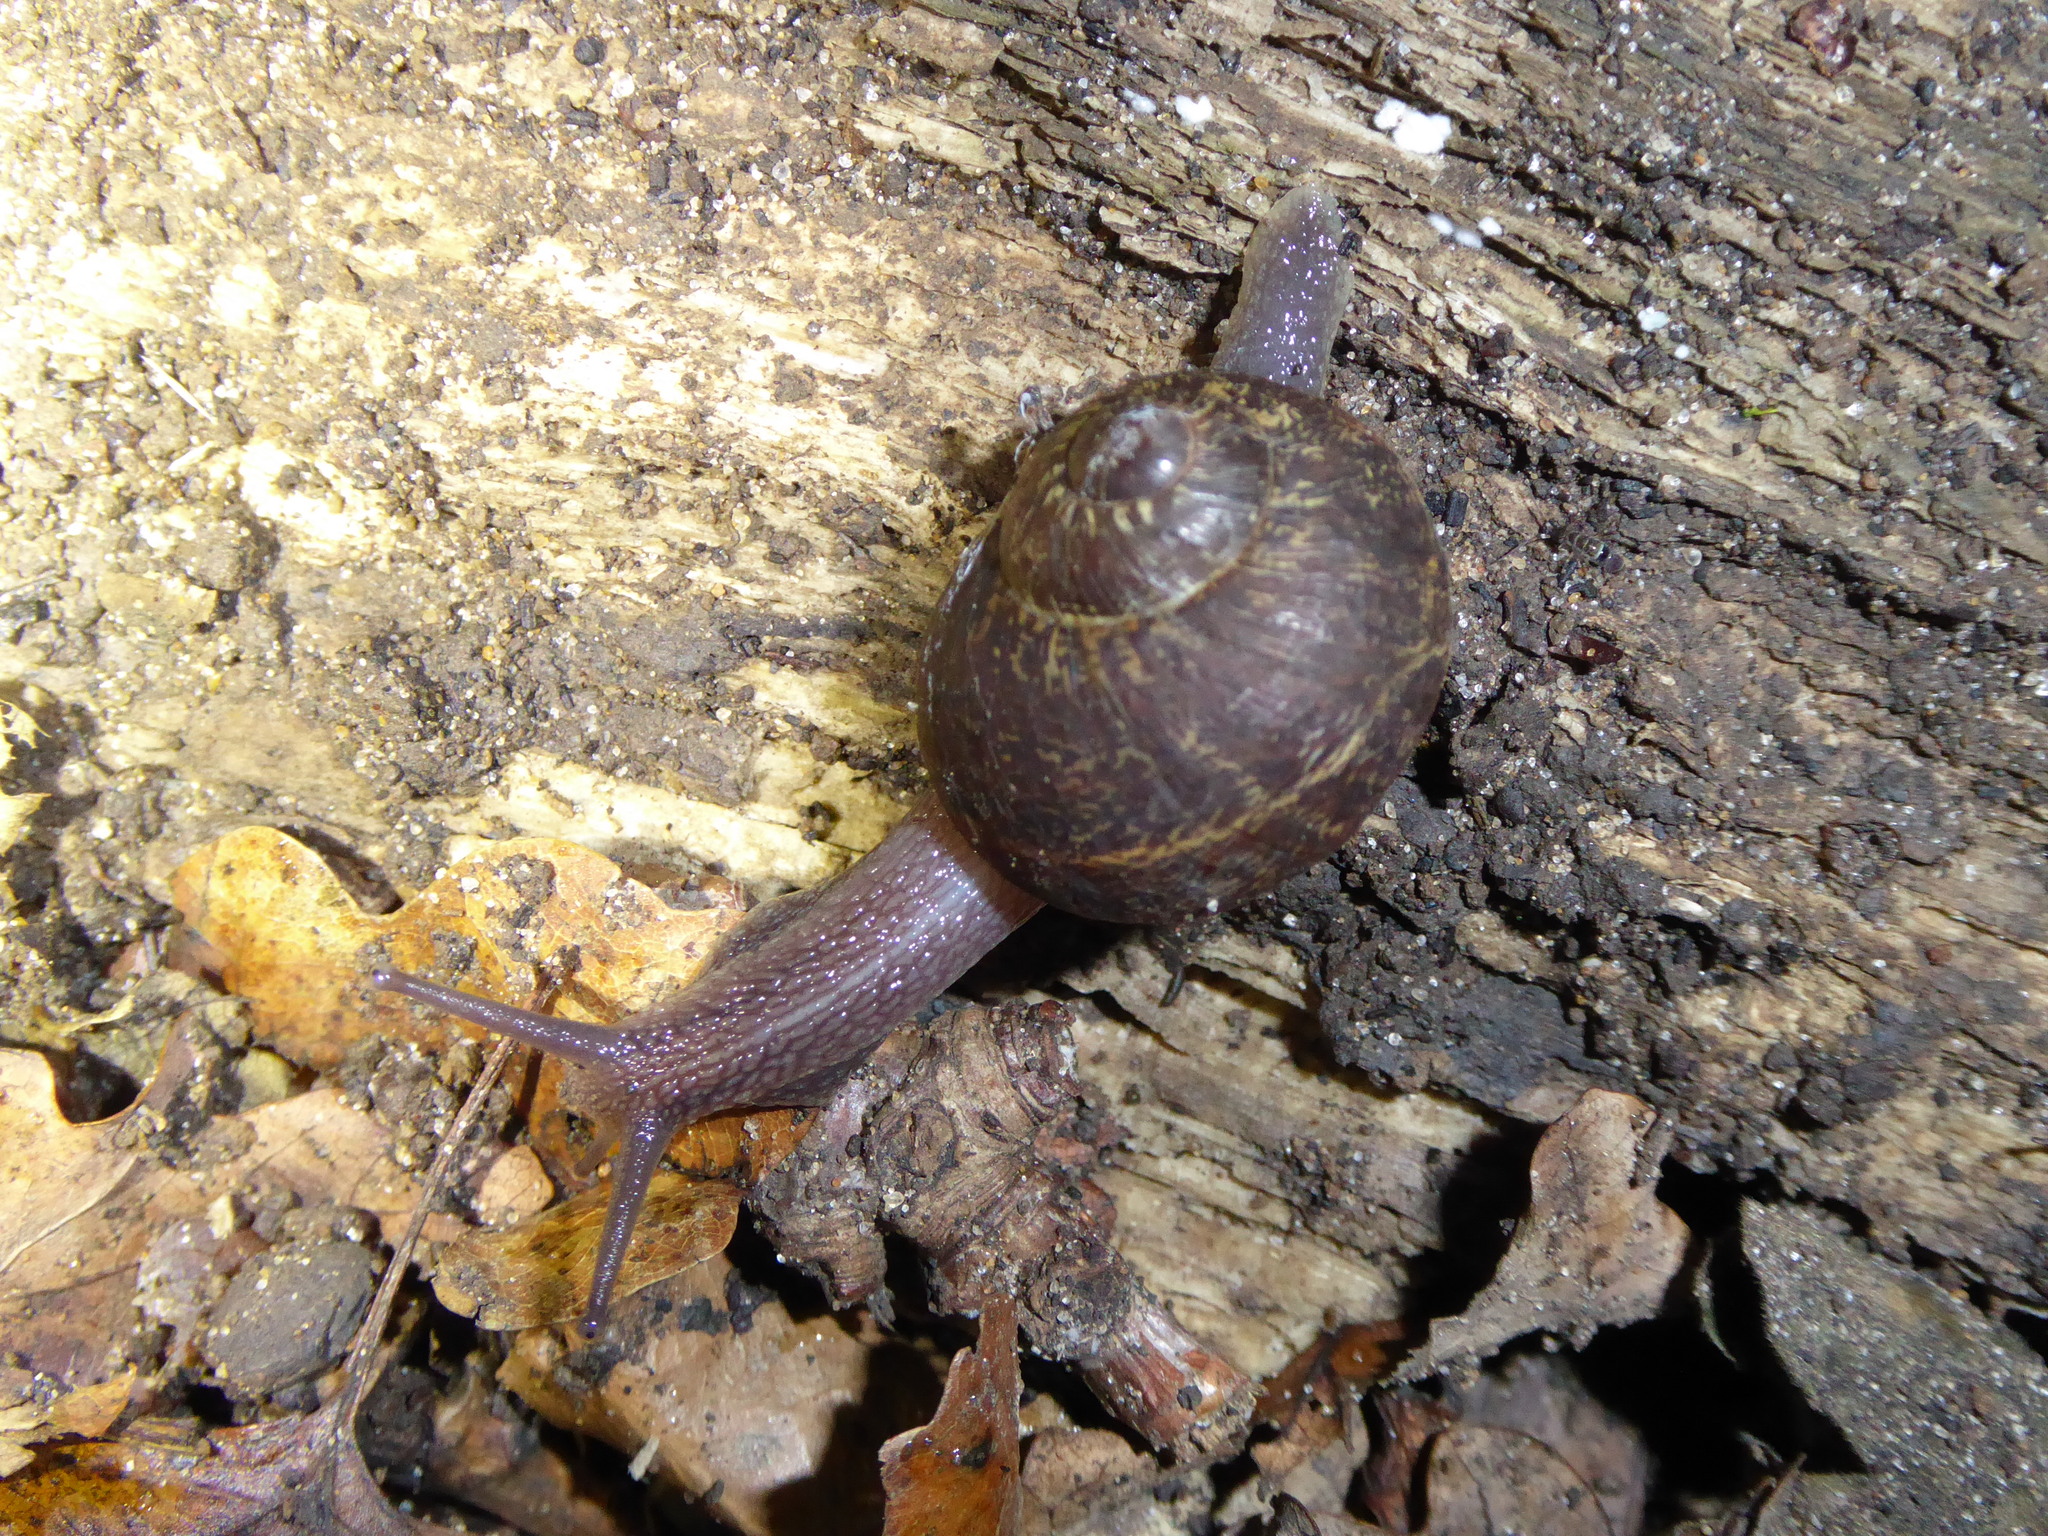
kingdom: Animalia
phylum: Mollusca
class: Gastropoda
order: Stylommatophora
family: Helicidae
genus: Cornu
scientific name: Cornu aspersum
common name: Brown garden snail
